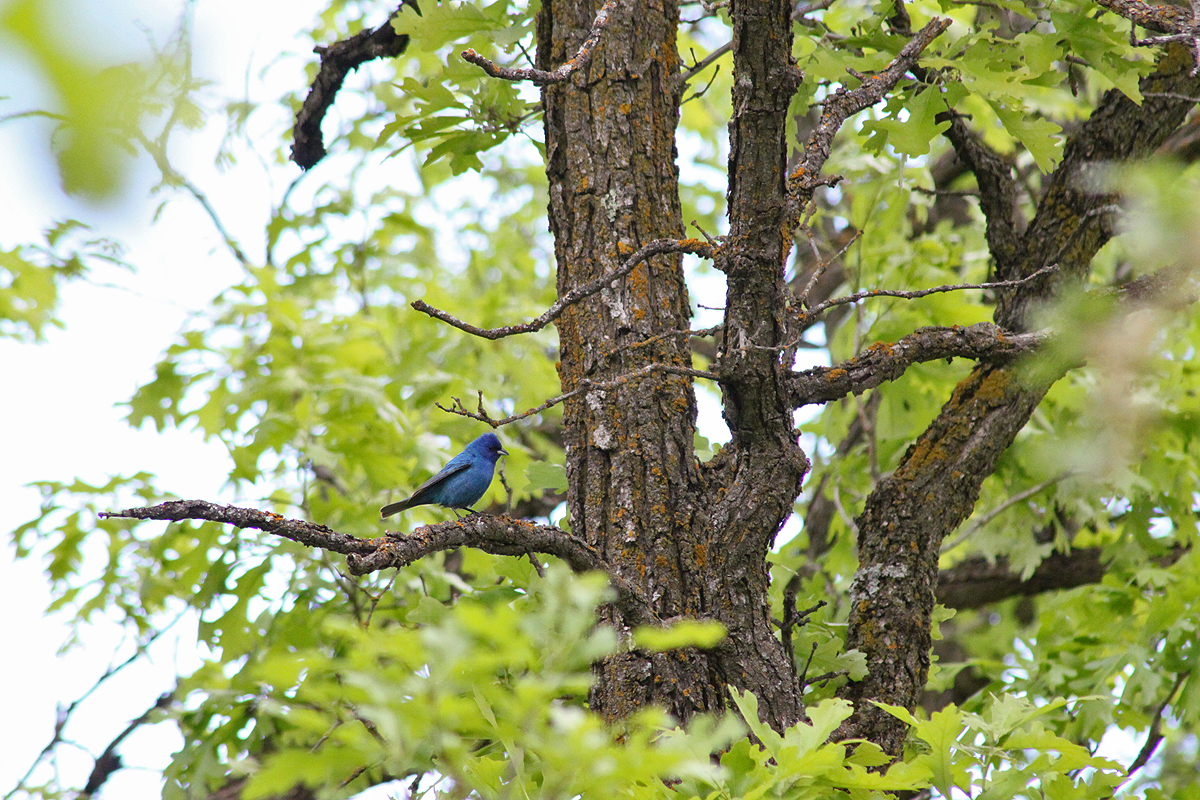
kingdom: Animalia
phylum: Chordata
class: Aves
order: Passeriformes
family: Cardinalidae
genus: Passerina
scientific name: Passerina cyanea
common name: Indigo bunting
